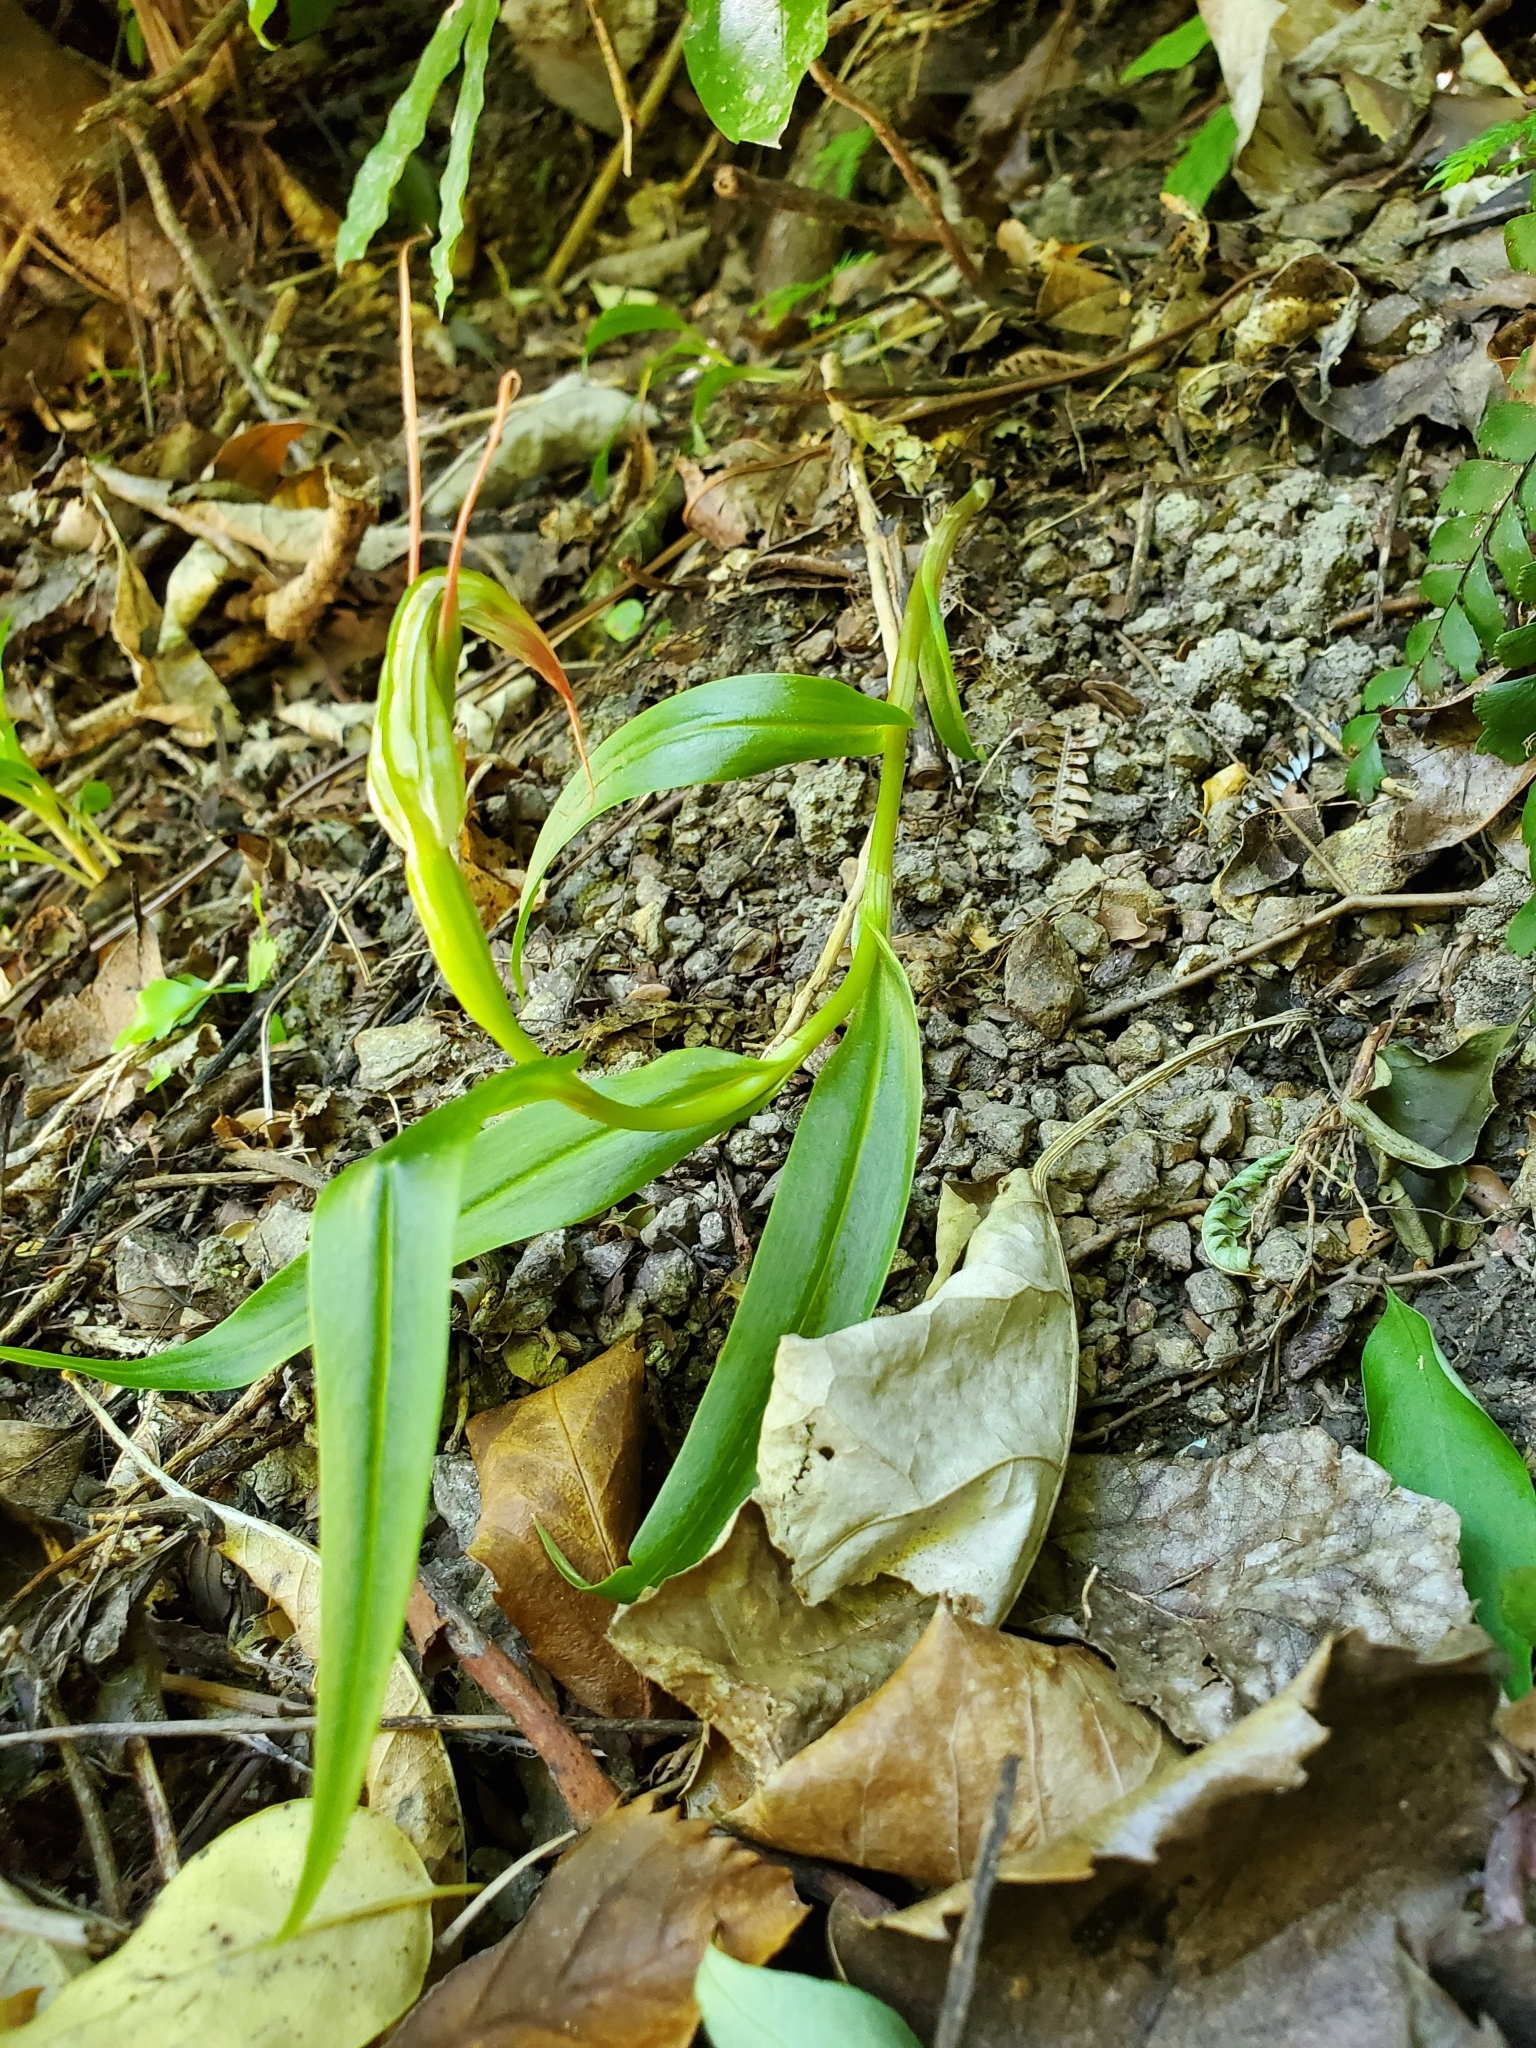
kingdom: Plantae
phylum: Tracheophyta
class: Liliopsida
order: Asparagales
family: Orchidaceae
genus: Pterostylis
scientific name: Pterostylis banksii
